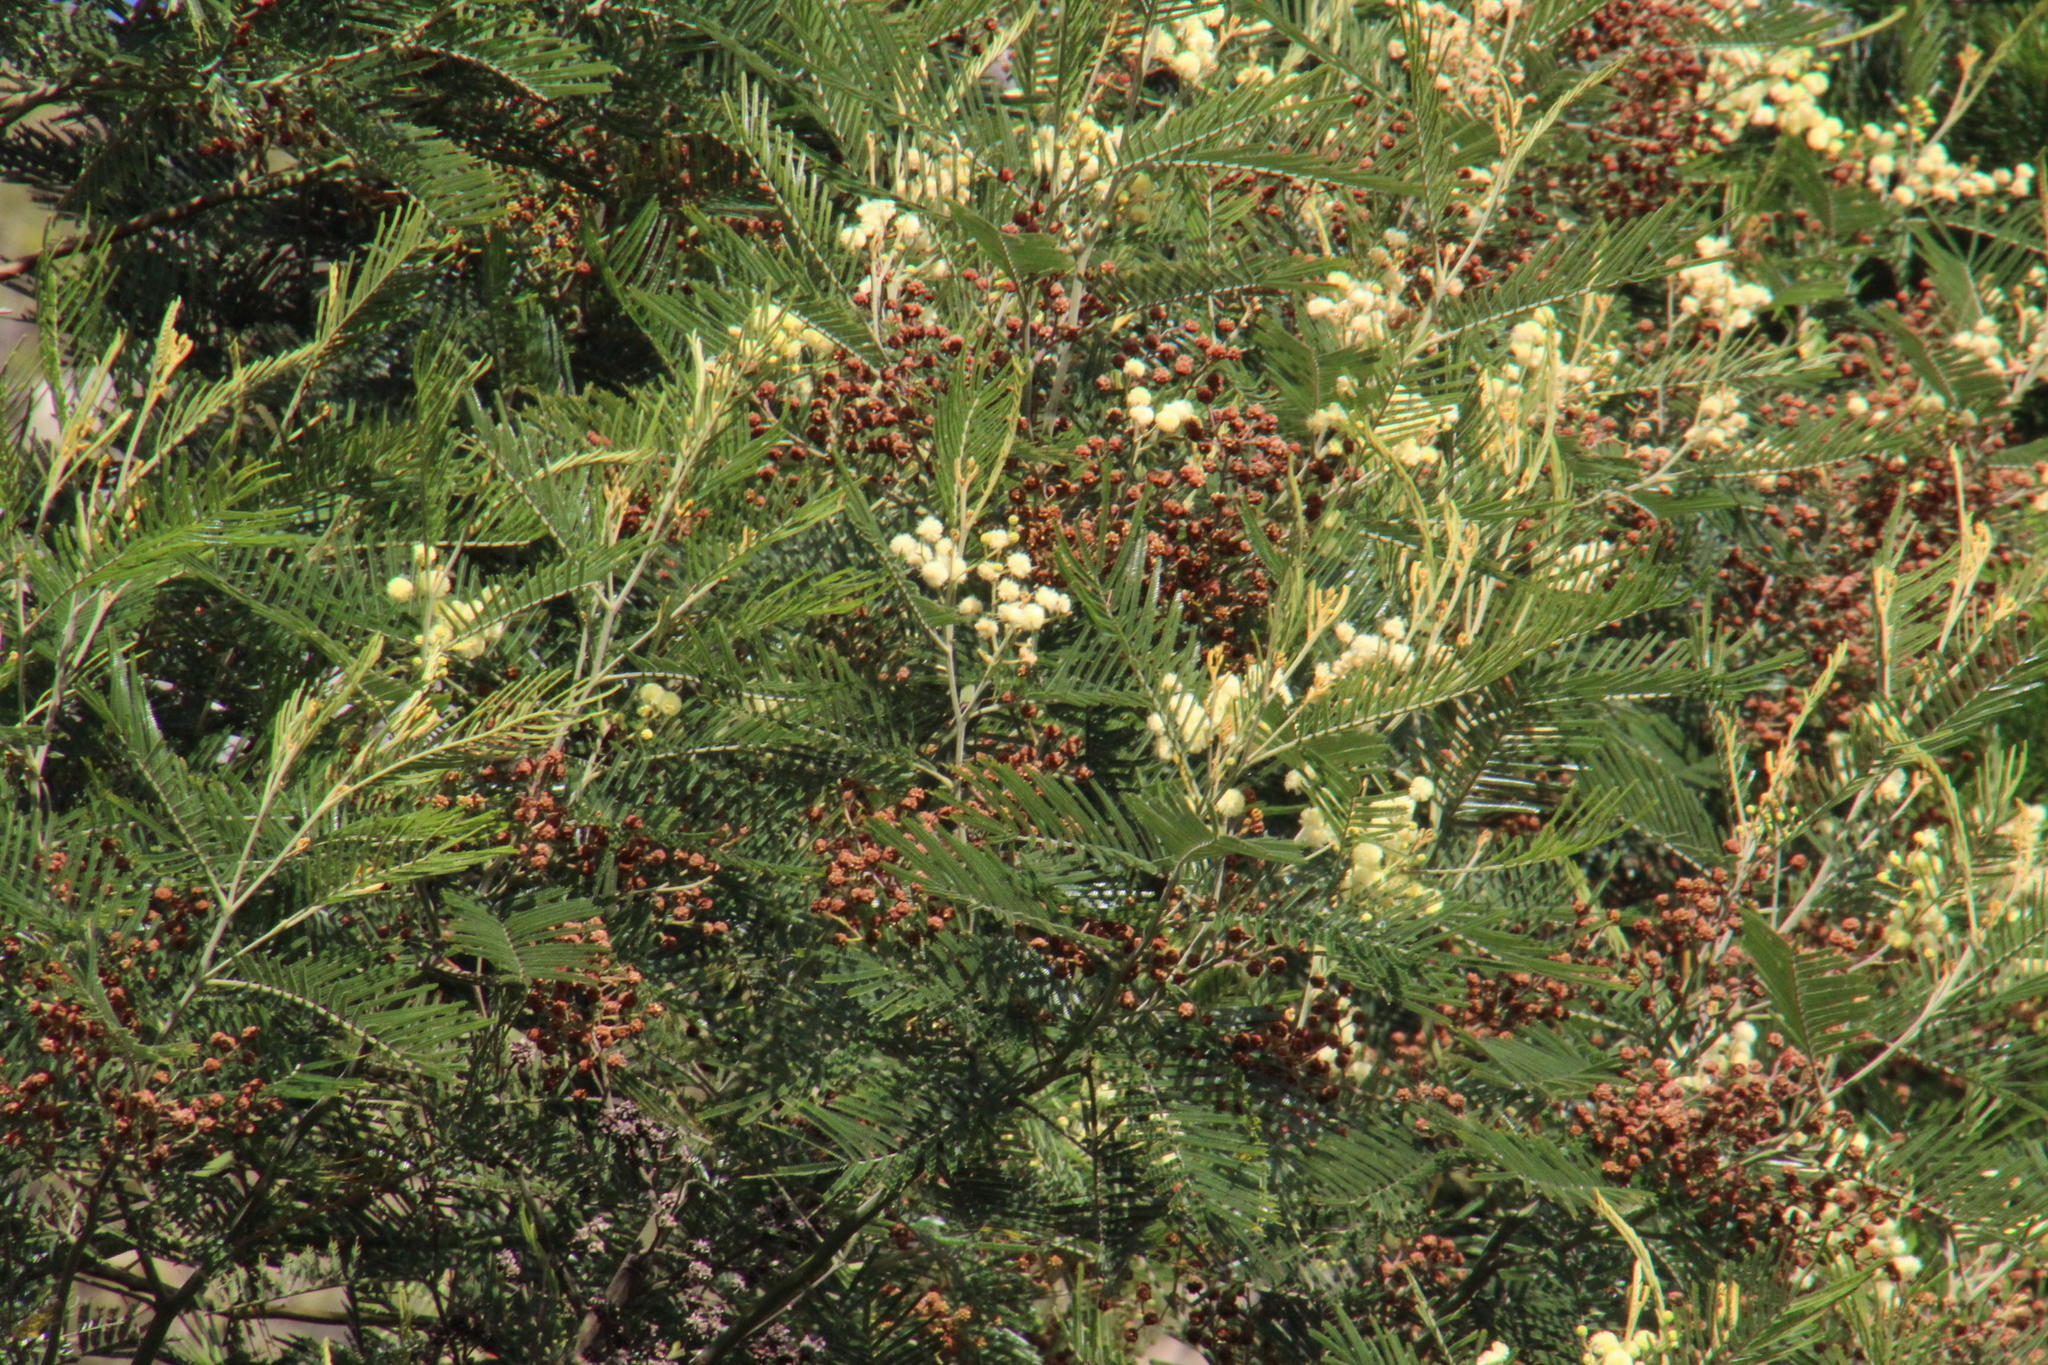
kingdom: Animalia
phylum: Arthropoda
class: Insecta
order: Diptera
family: Cecidomyiidae
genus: Dasineura
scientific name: Dasineura rubiformis
